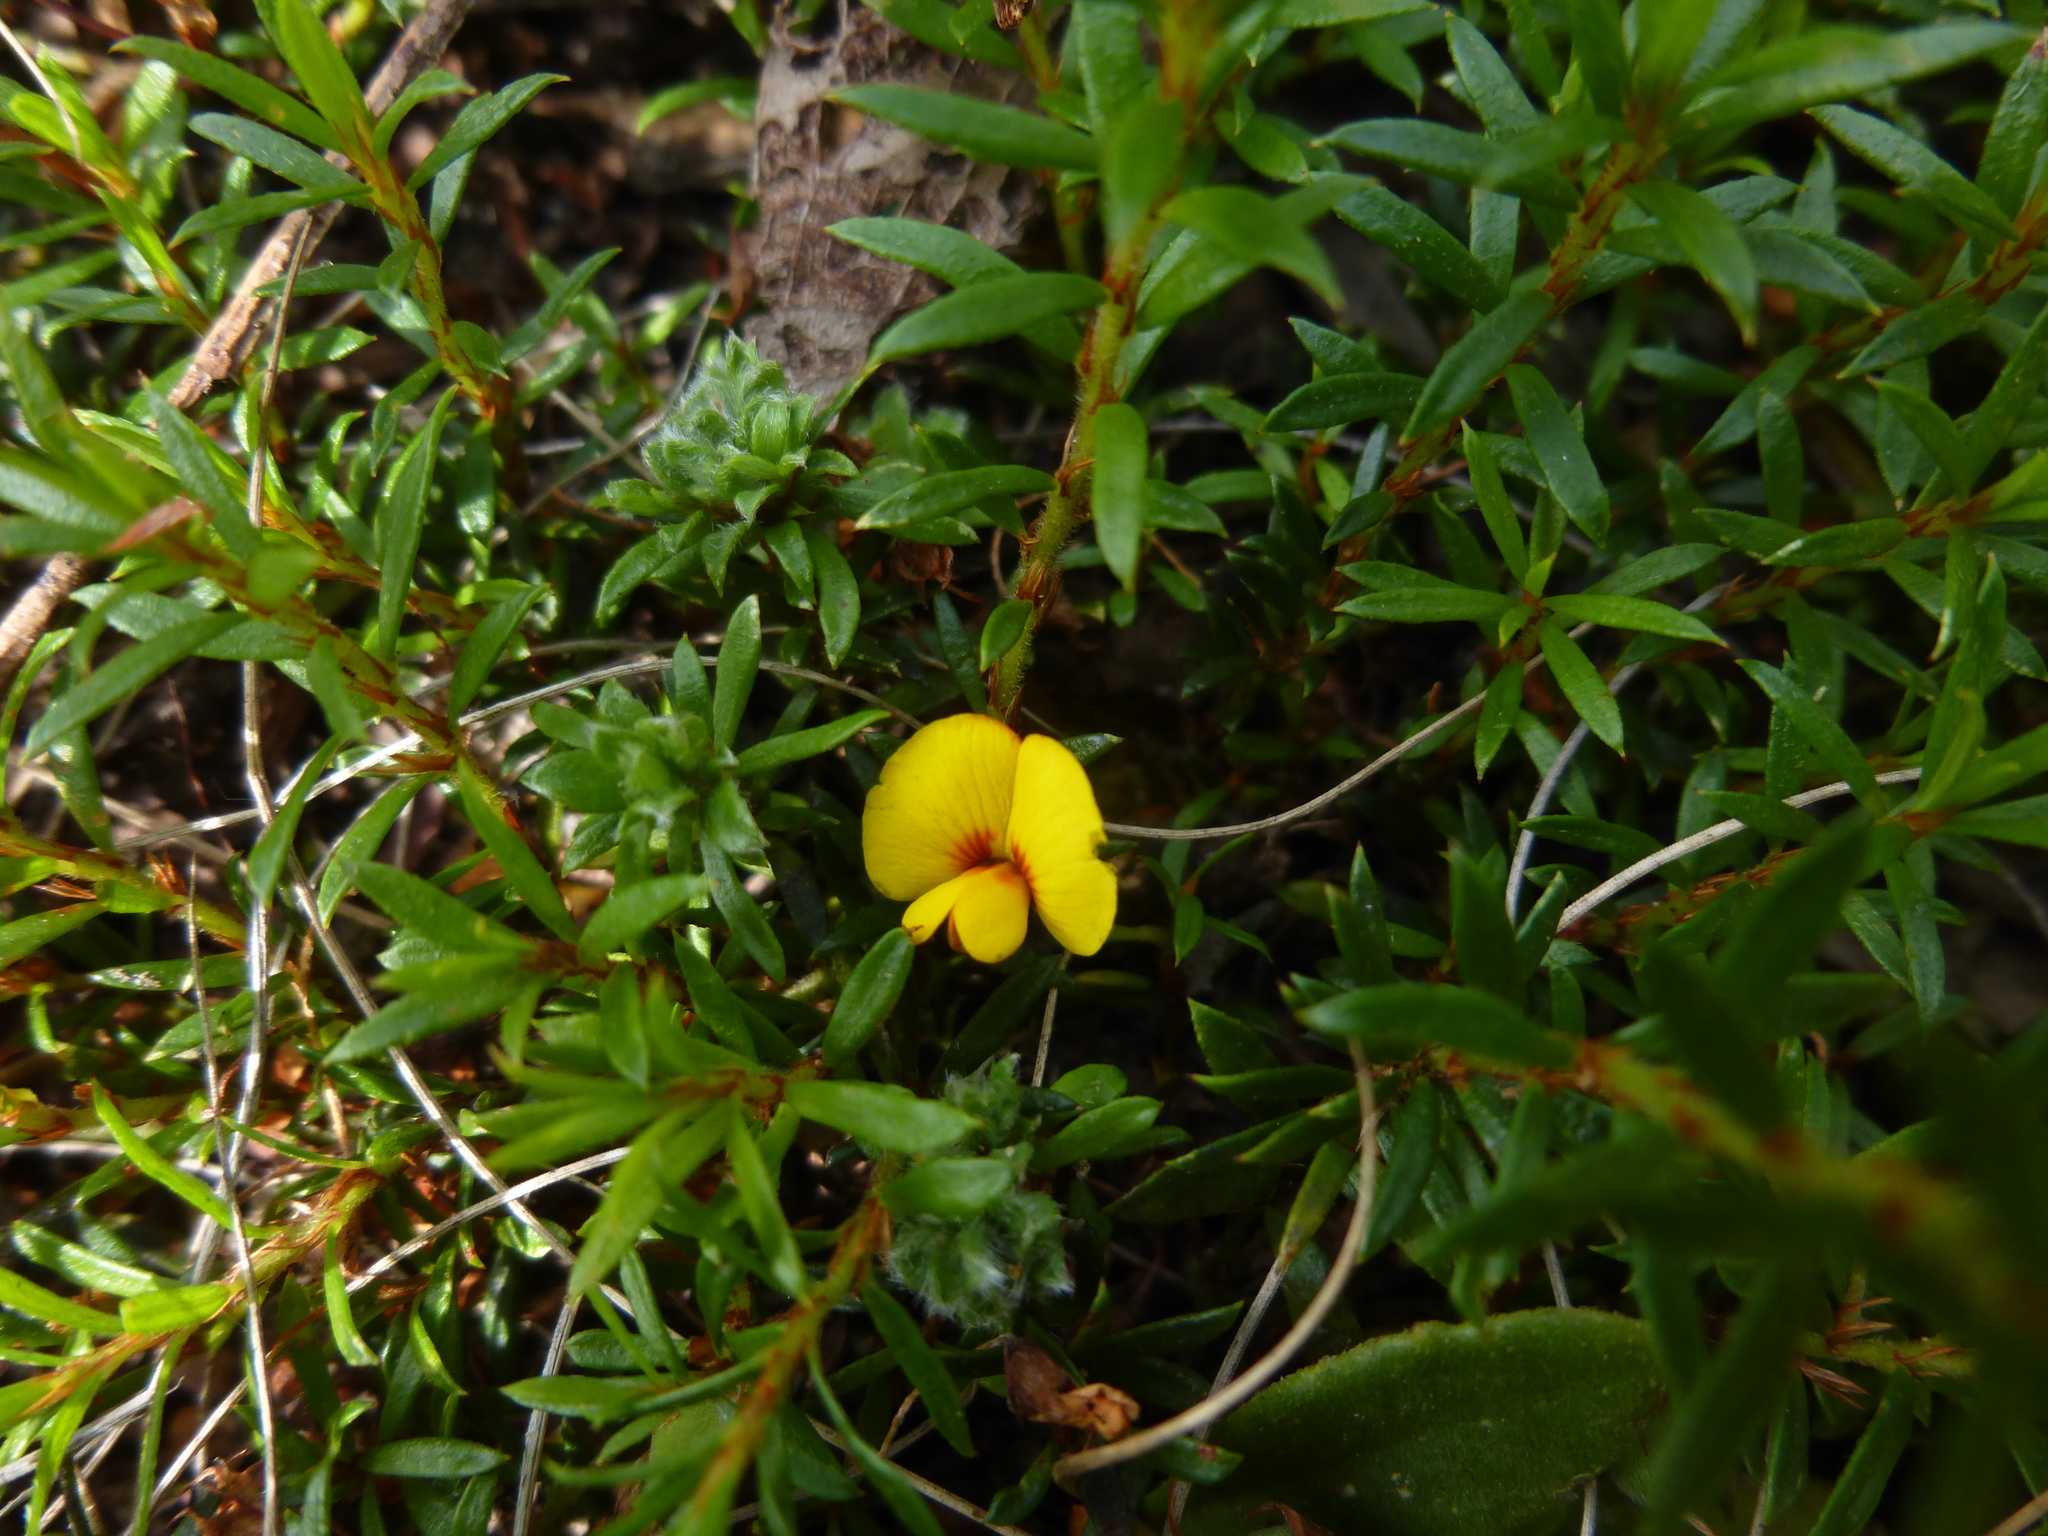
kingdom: Plantae
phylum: Tracheophyta
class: Magnoliopsida
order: Fabales
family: Fabaceae
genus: Pultenaea
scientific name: Pultenaea pedunculata
